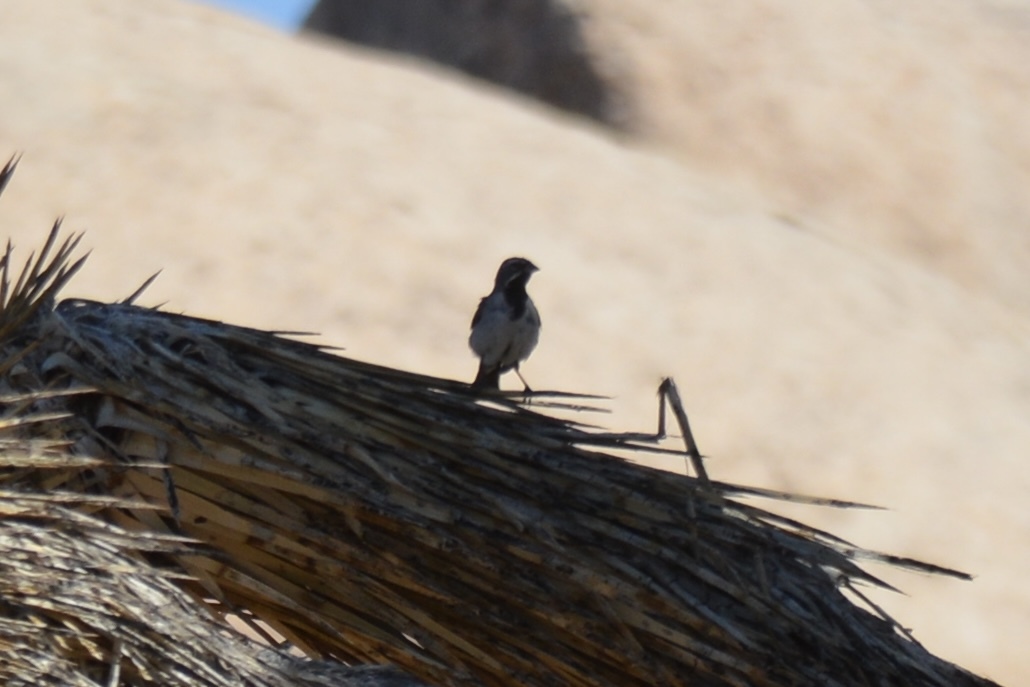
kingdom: Animalia
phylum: Chordata
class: Aves
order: Passeriformes
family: Passerellidae
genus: Amphispiza
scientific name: Amphispiza bilineata
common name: Black-throated sparrow
